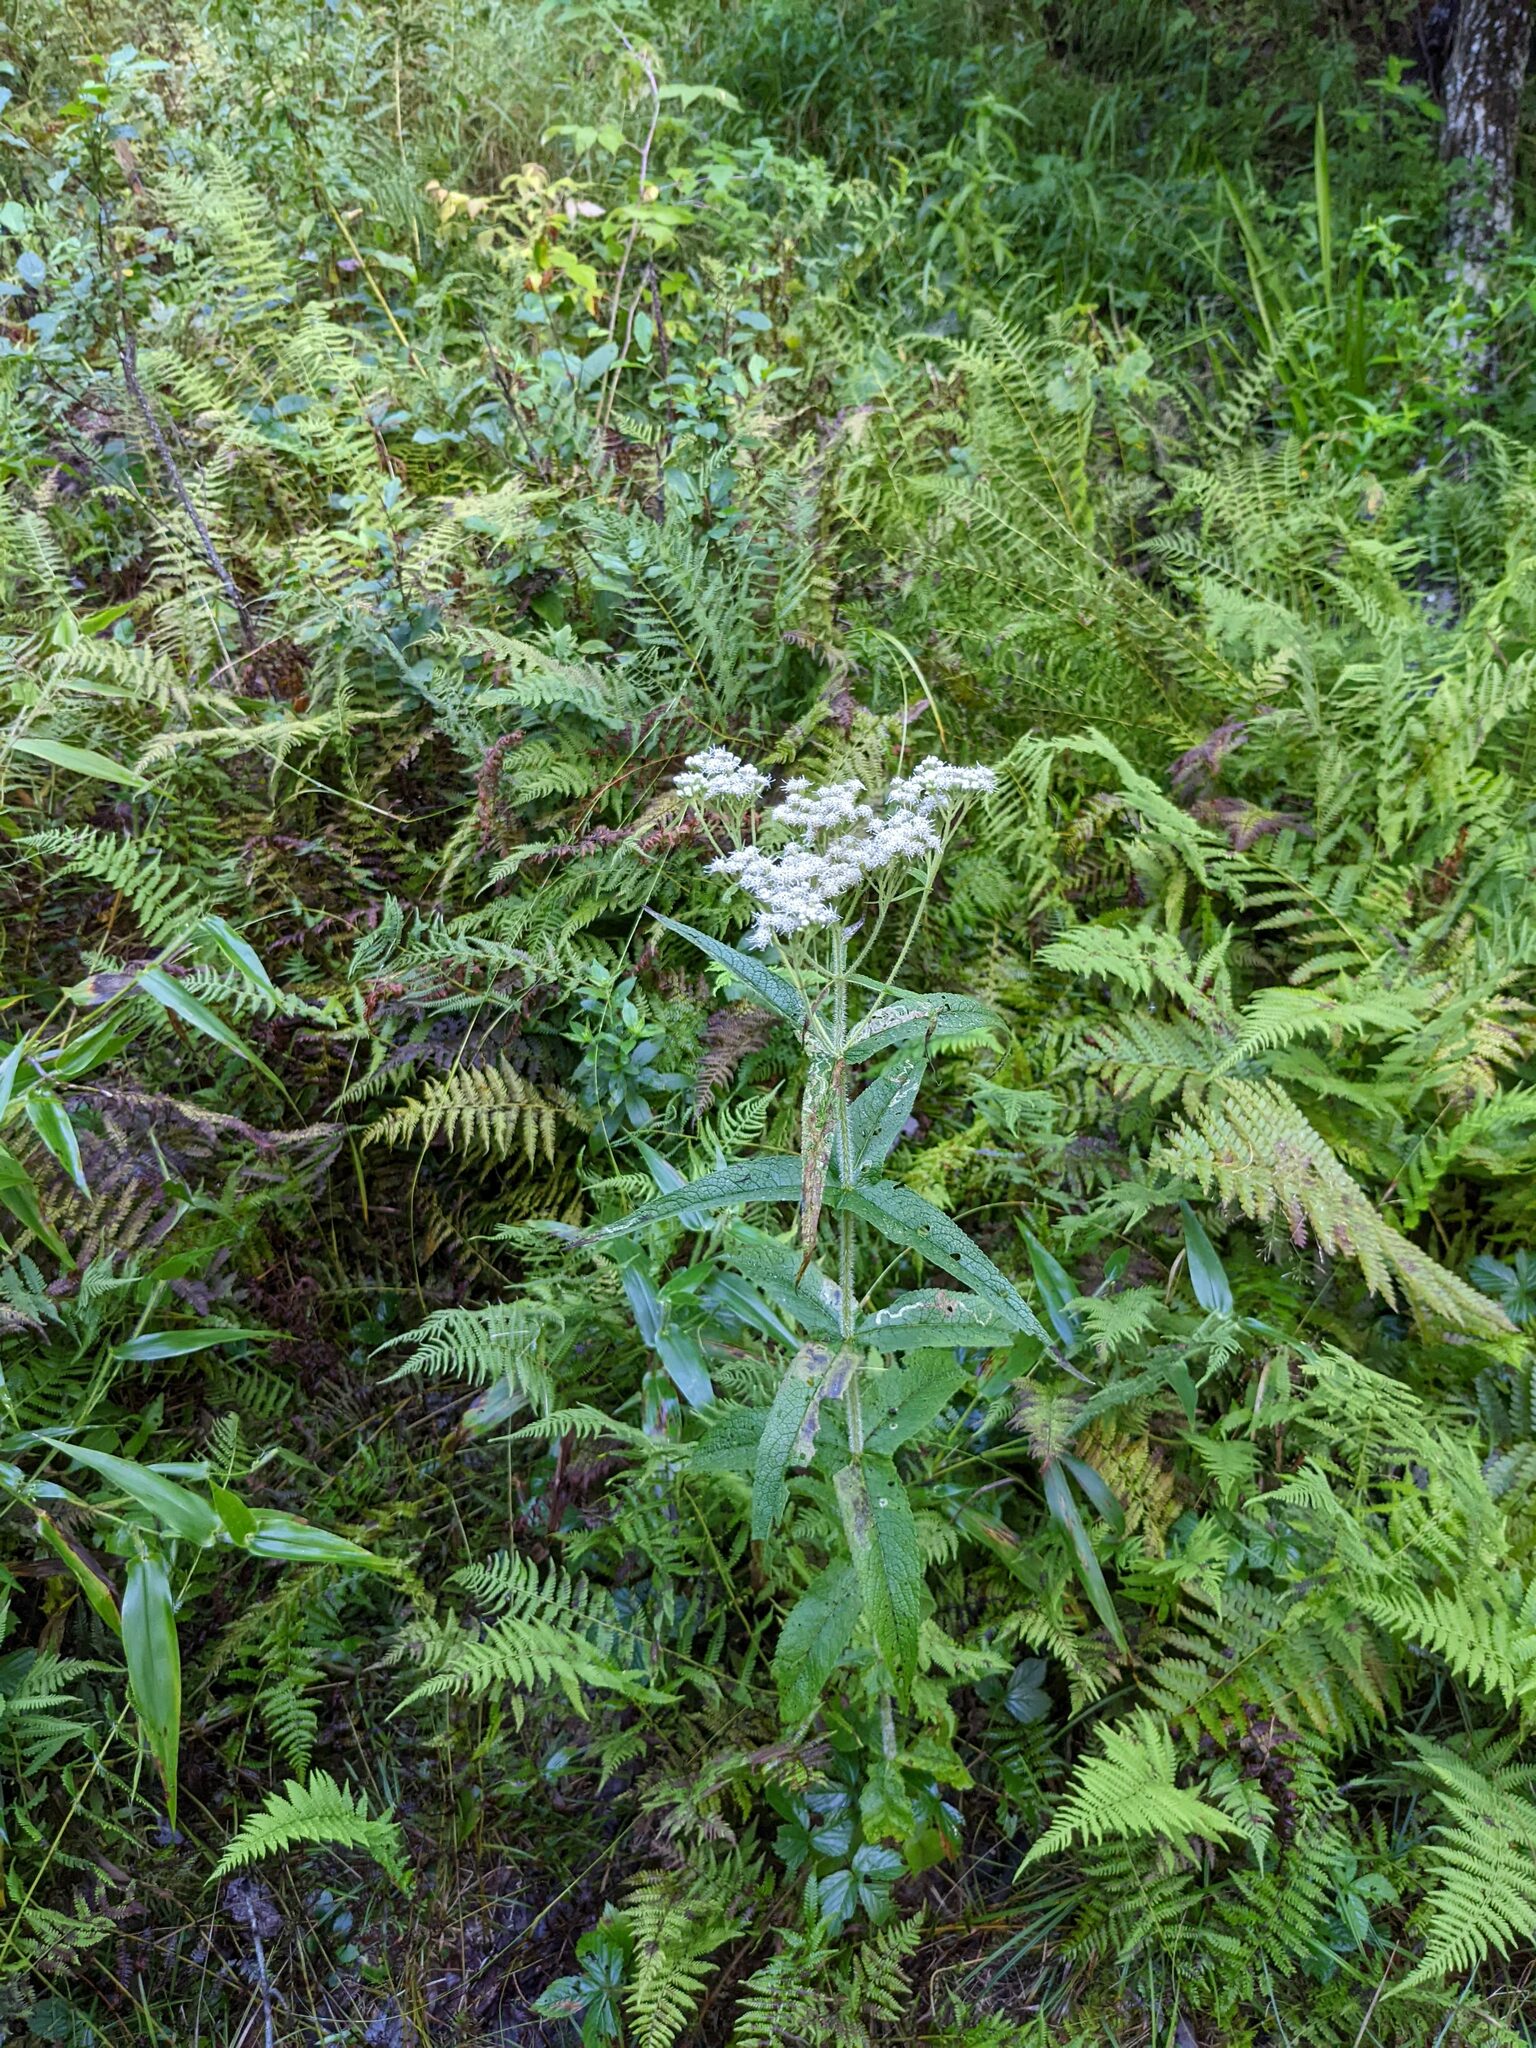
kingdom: Plantae
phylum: Tracheophyta
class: Magnoliopsida
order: Asterales
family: Asteraceae
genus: Eupatorium
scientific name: Eupatorium perfoliatum
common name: Boneset
